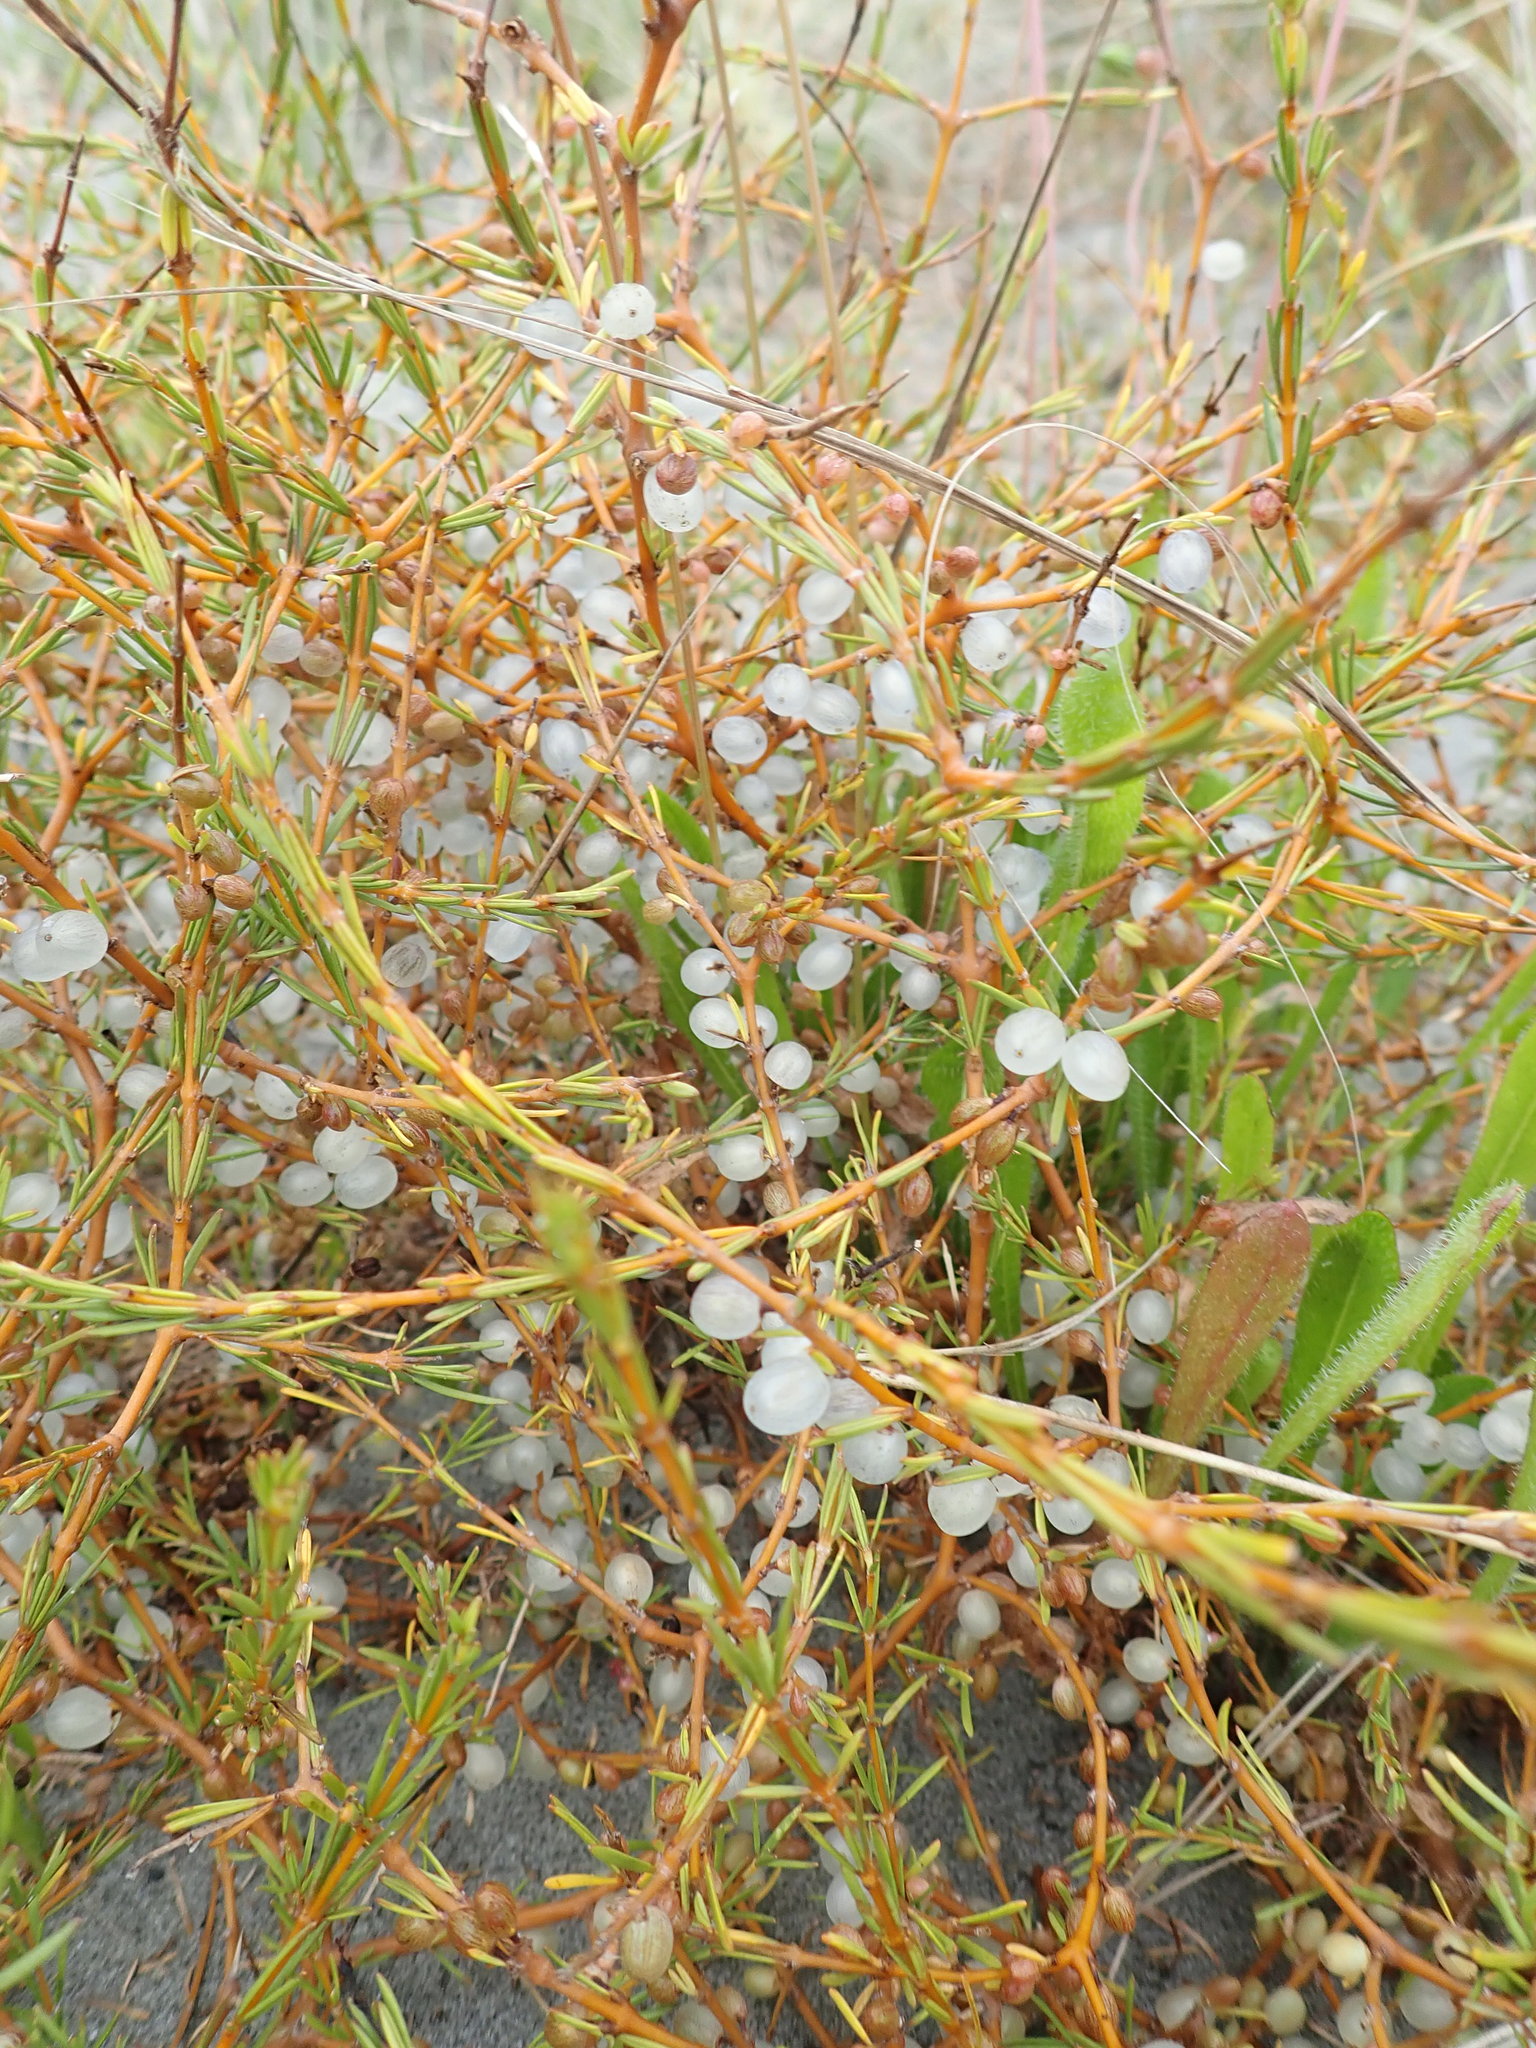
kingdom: Plantae
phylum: Tracheophyta
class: Magnoliopsida
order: Gentianales
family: Rubiaceae
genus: Coprosma
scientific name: Coprosma acerosa
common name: Sand coprosma
